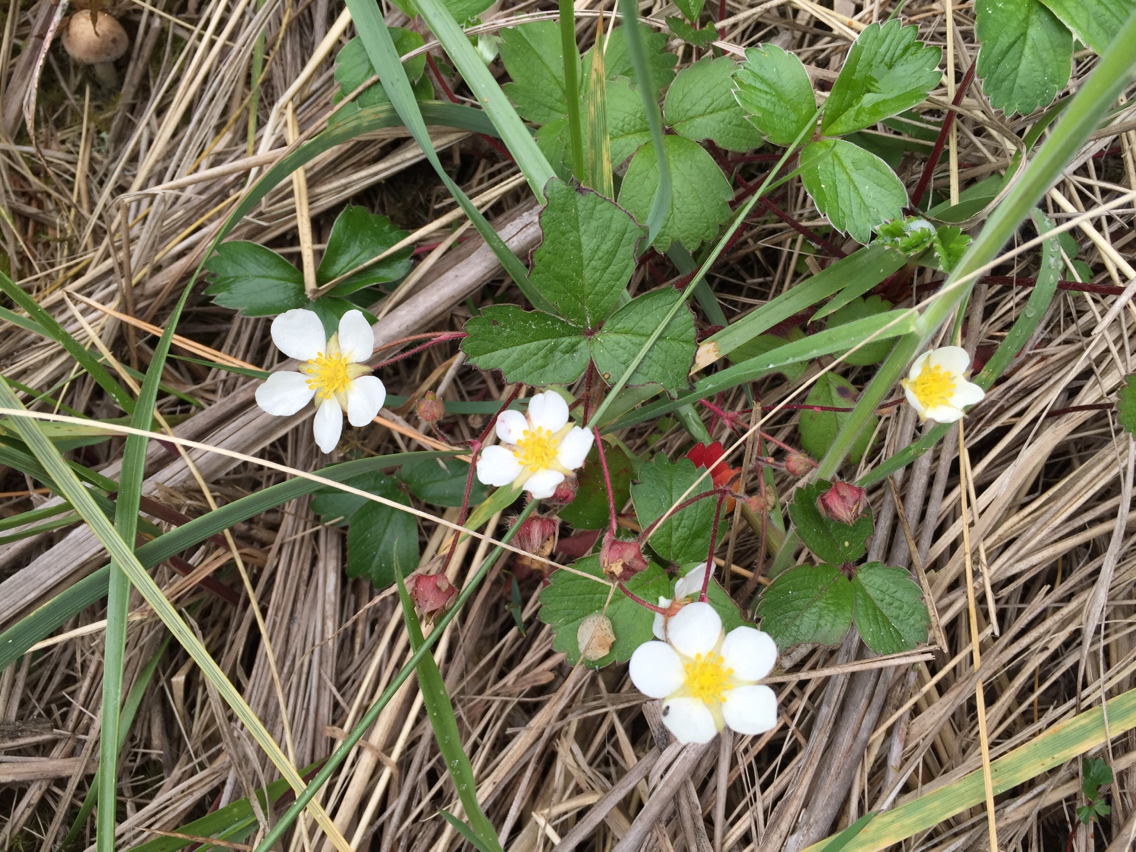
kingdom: Plantae
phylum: Tracheophyta
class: Magnoliopsida
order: Rosales
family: Rosaceae
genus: Fragaria
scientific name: Fragaria chiloensis
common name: Beach strawberry
